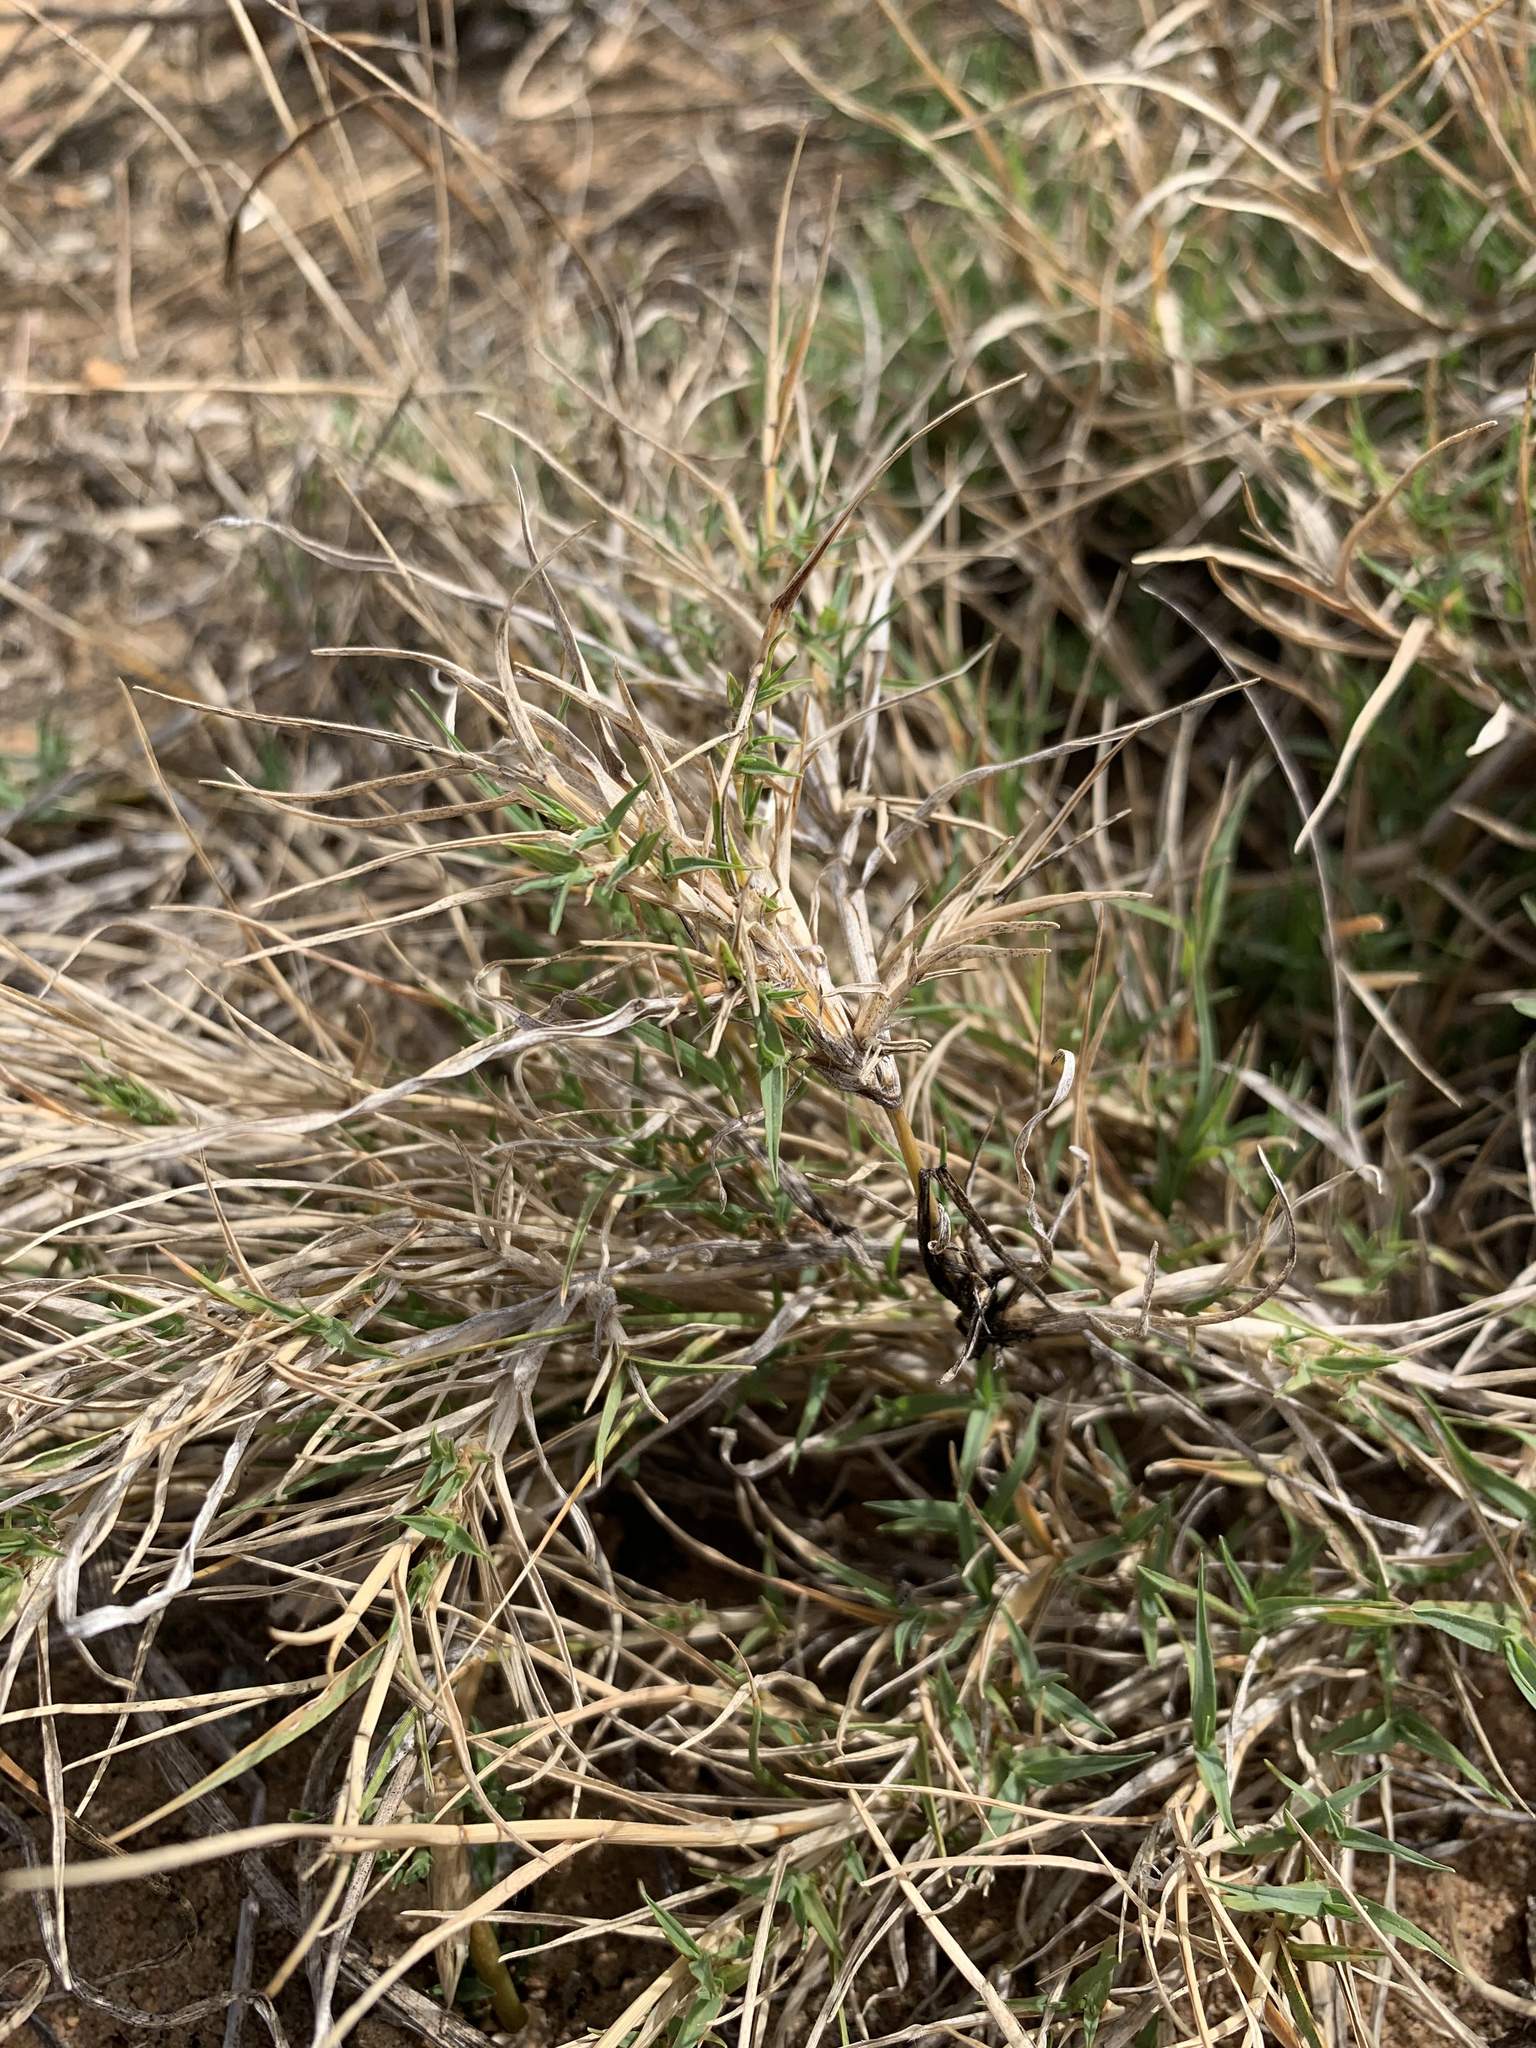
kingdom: Plantae
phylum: Tracheophyta
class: Liliopsida
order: Poales
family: Poaceae
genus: Cynodon
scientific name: Cynodon dactylon
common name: Bermuda grass
